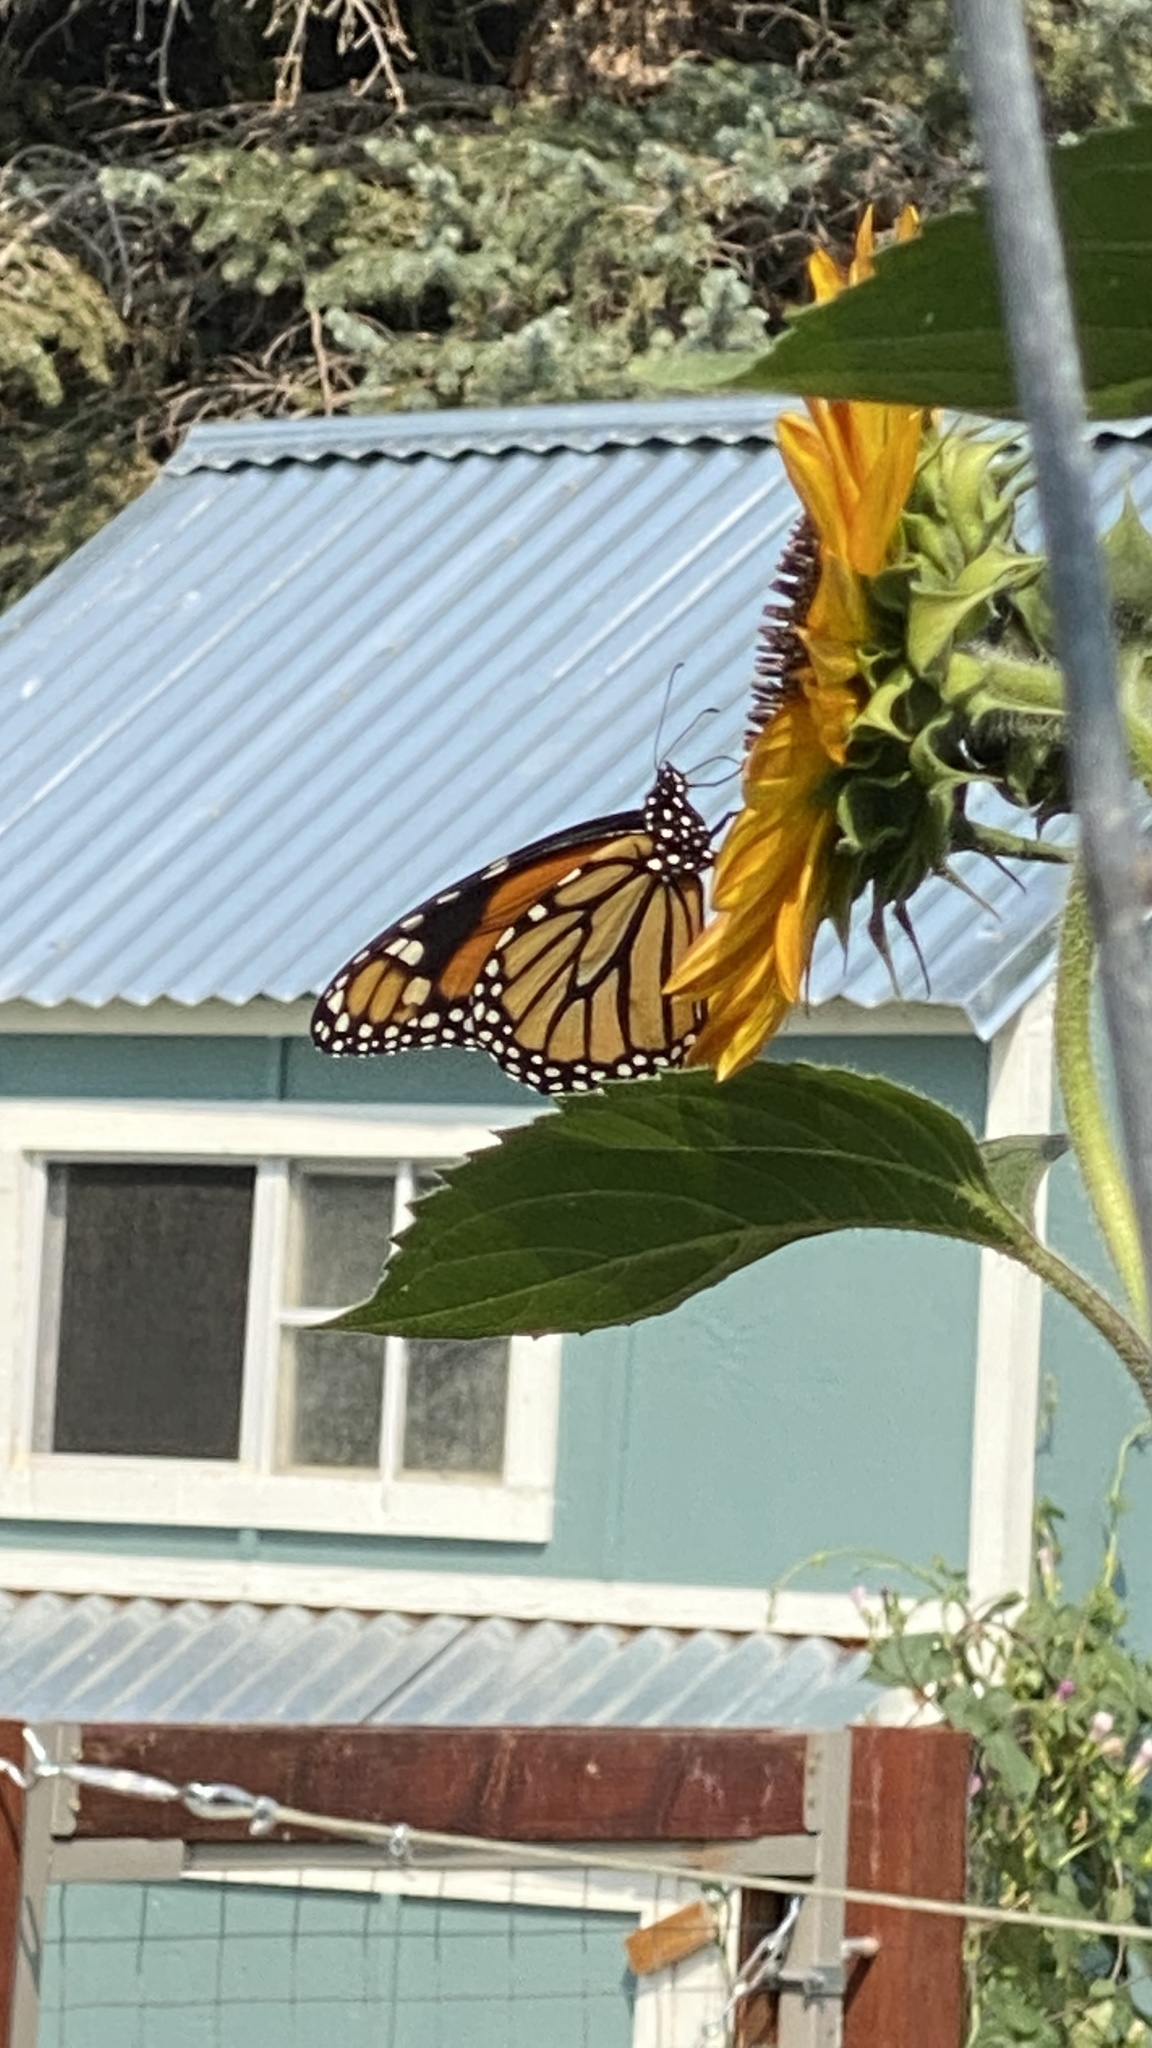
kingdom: Animalia
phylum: Arthropoda
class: Insecta
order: Lepidoptera
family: Nymphalidae
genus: Danaus
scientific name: Danaus plexippus
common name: Monarch
